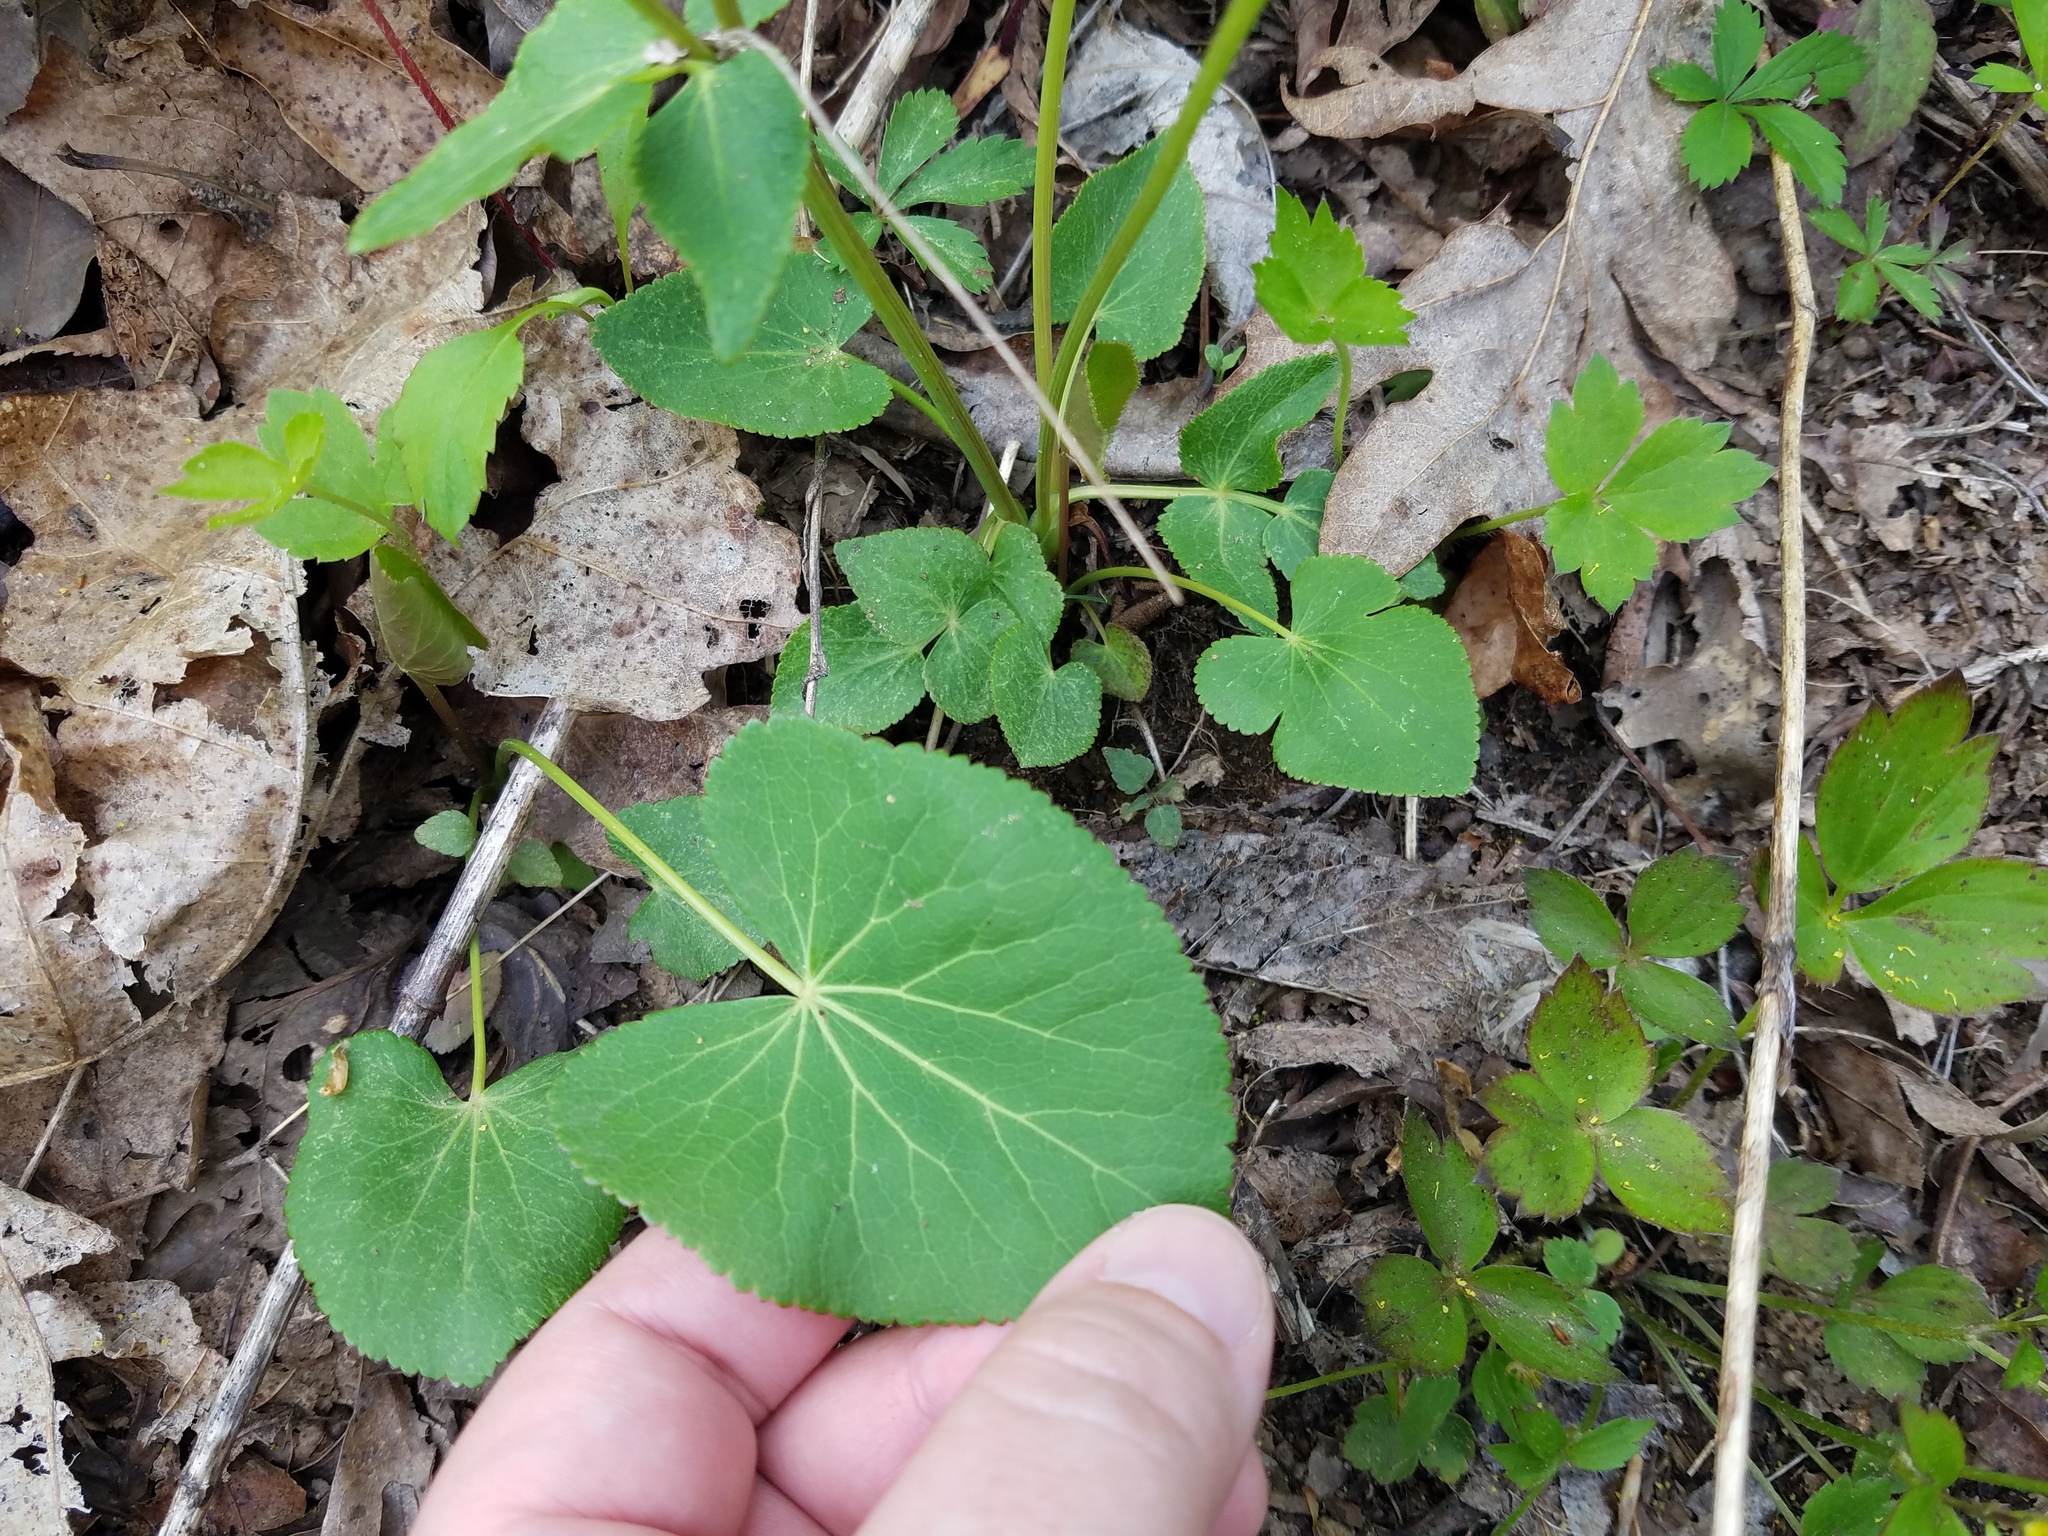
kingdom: Plantae
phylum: Tracheophyta
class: Magnoliopsida
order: Apiales
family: Apiaceae
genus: Zizia
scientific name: Zizia aptera
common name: Heart-leaved alexanders
